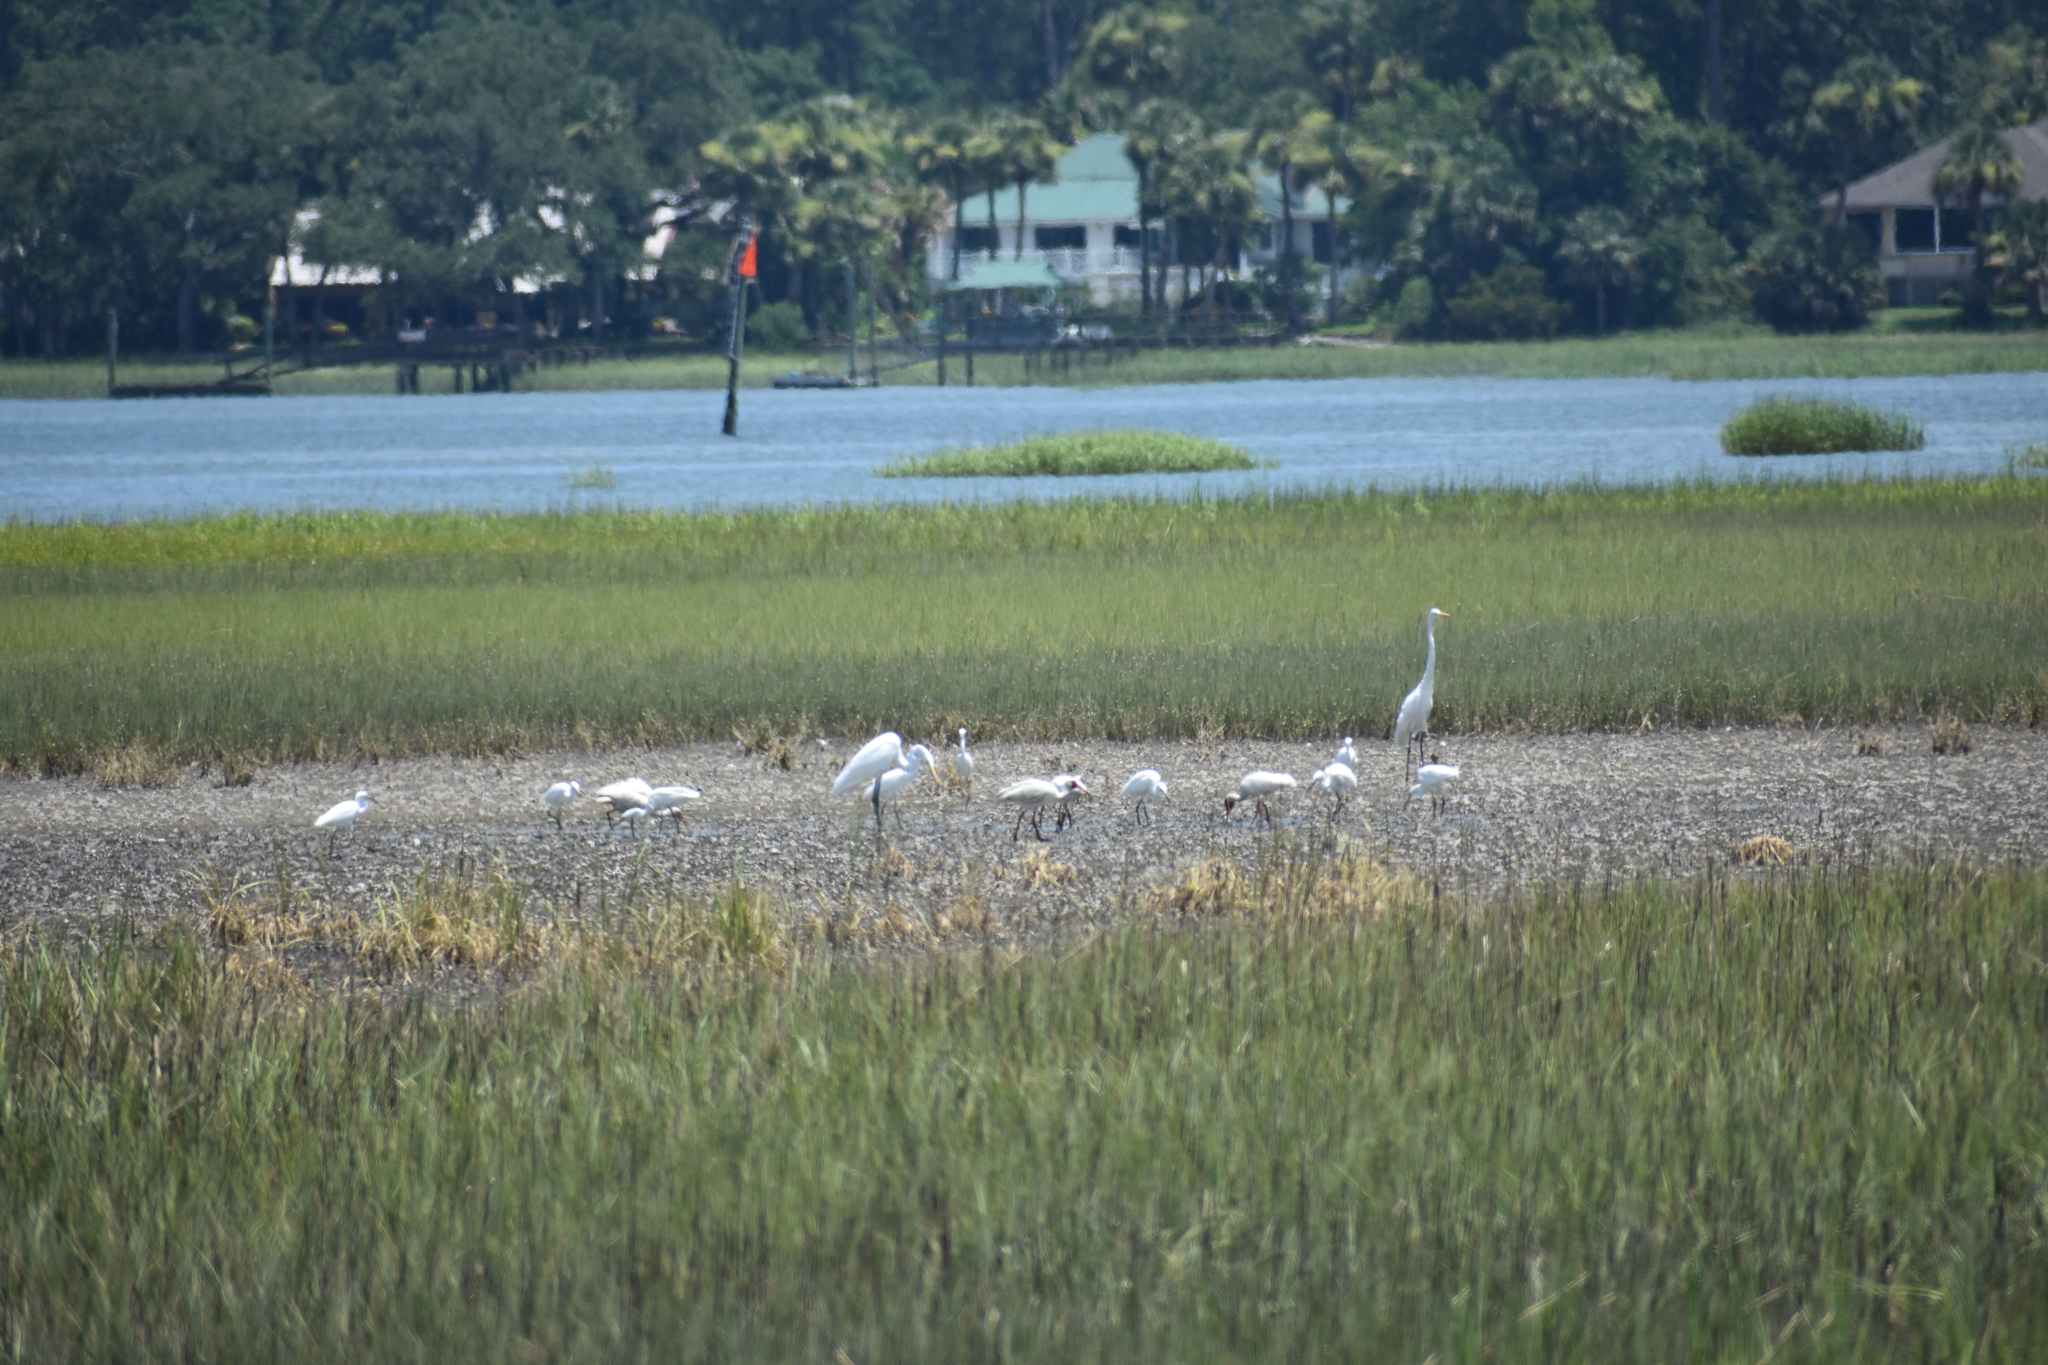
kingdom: Animalia
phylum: Chordata
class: Aves
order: Pelecaniformes
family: Threskiornithidae
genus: Eudocimus
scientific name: Eudocimus albus
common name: White ibis
